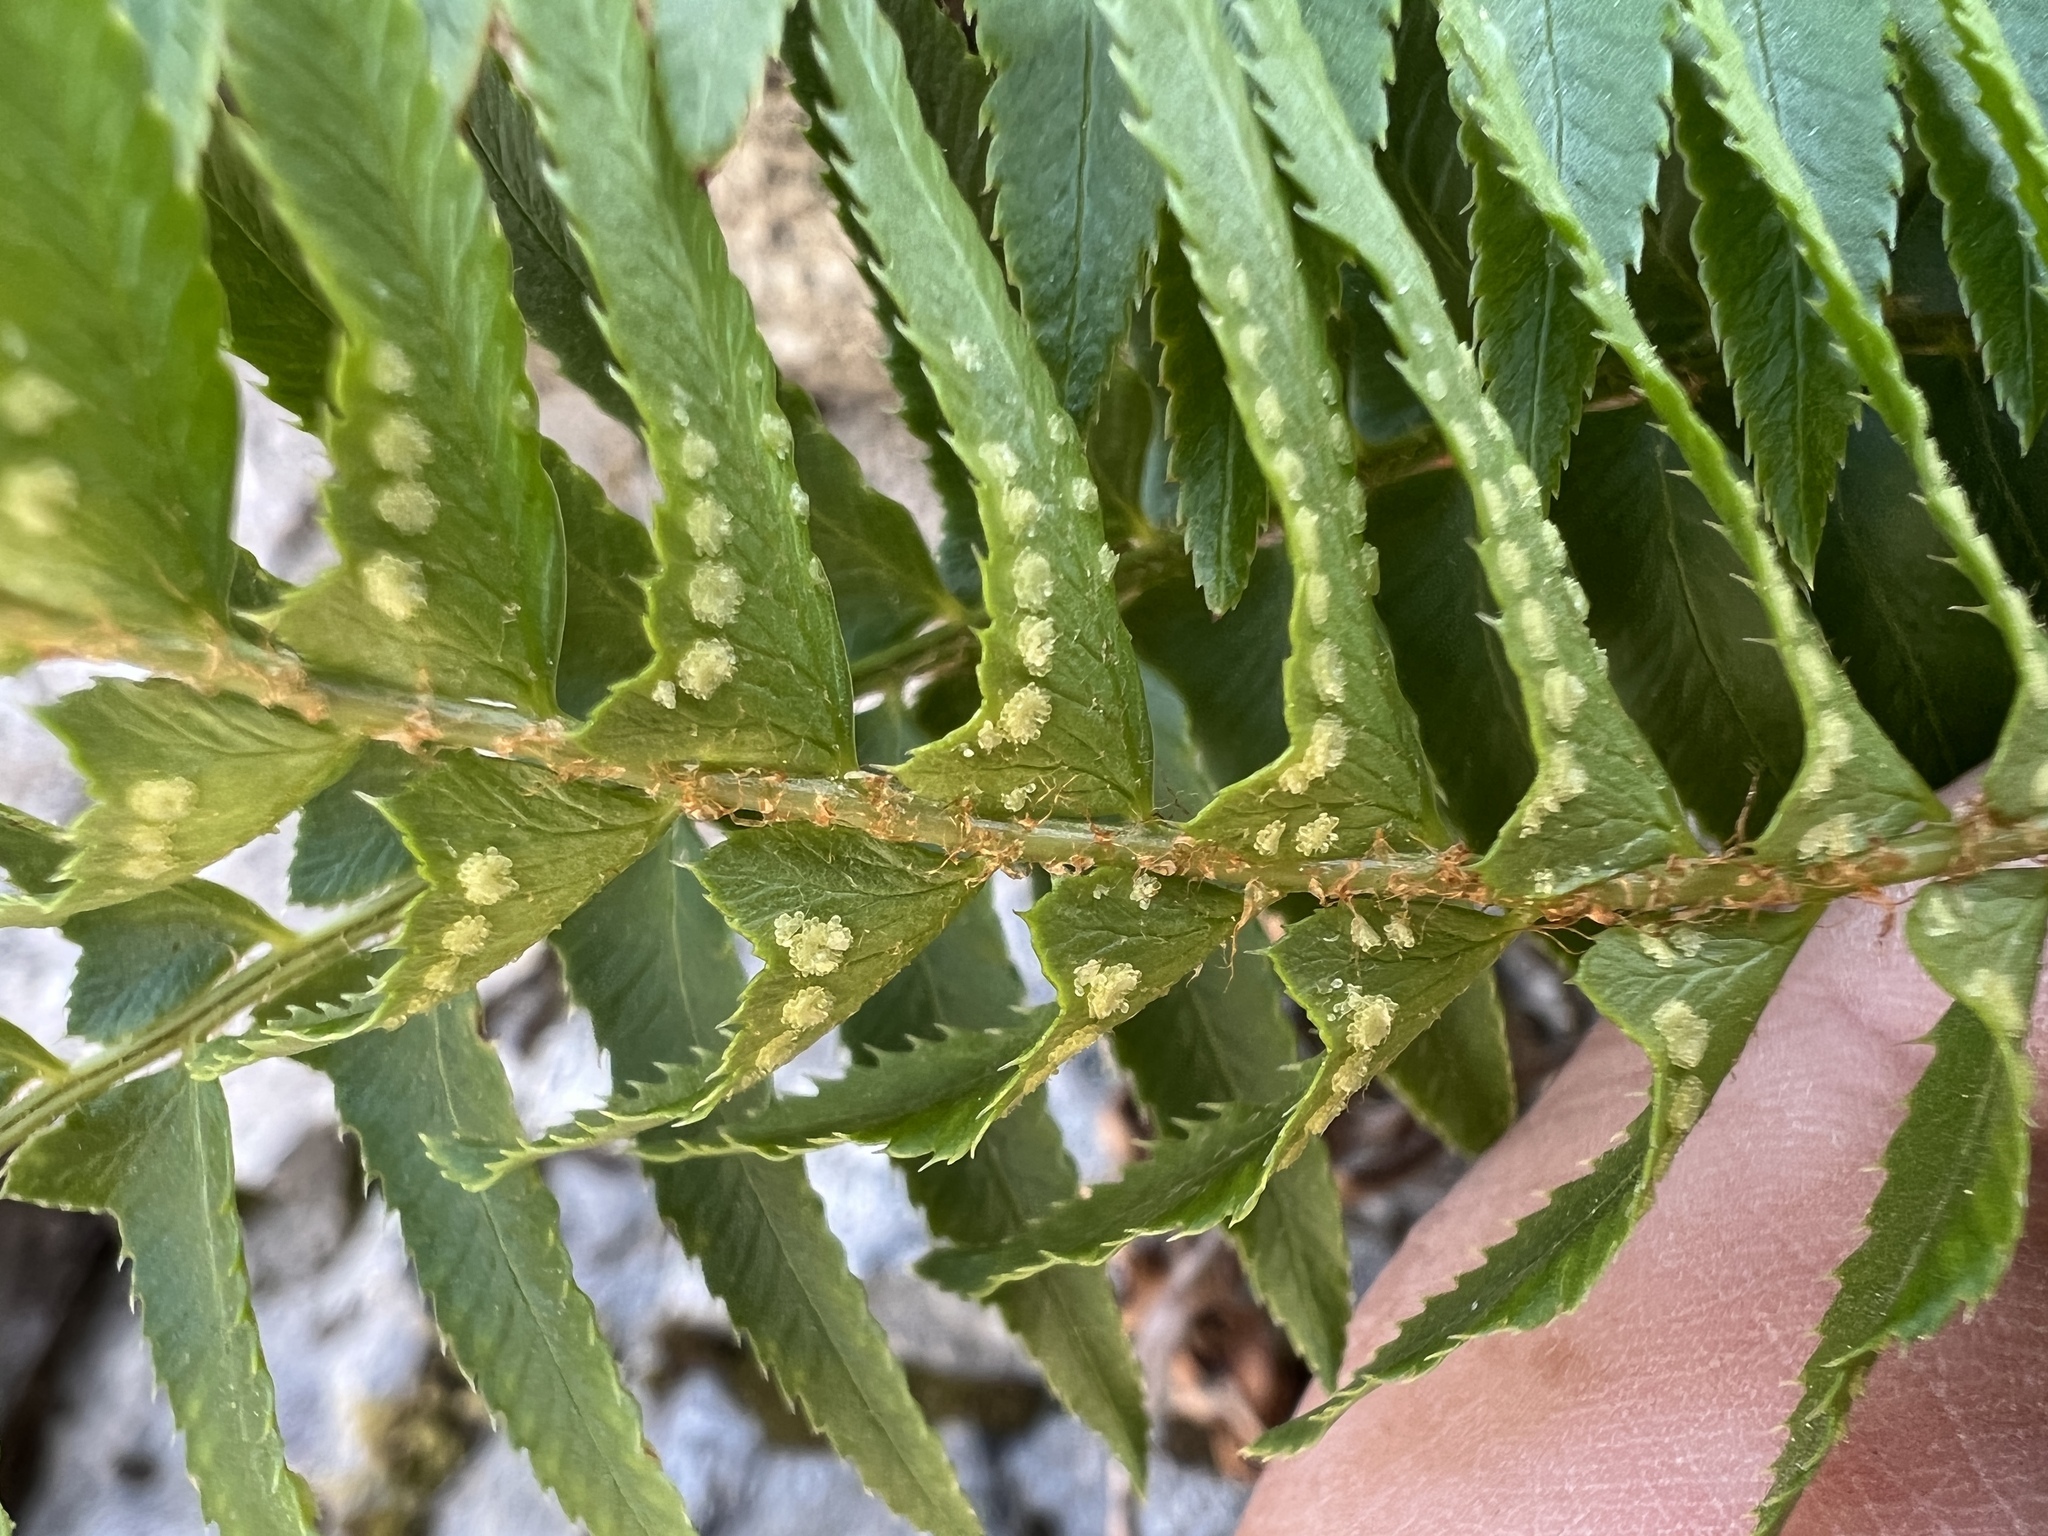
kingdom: Plantae
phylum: Tracheophyta
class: Polypodiopsida
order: Polypodiales
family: Dryopteridaceae
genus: Polystichum
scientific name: Polystichum munitum
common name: Western sword-fern
